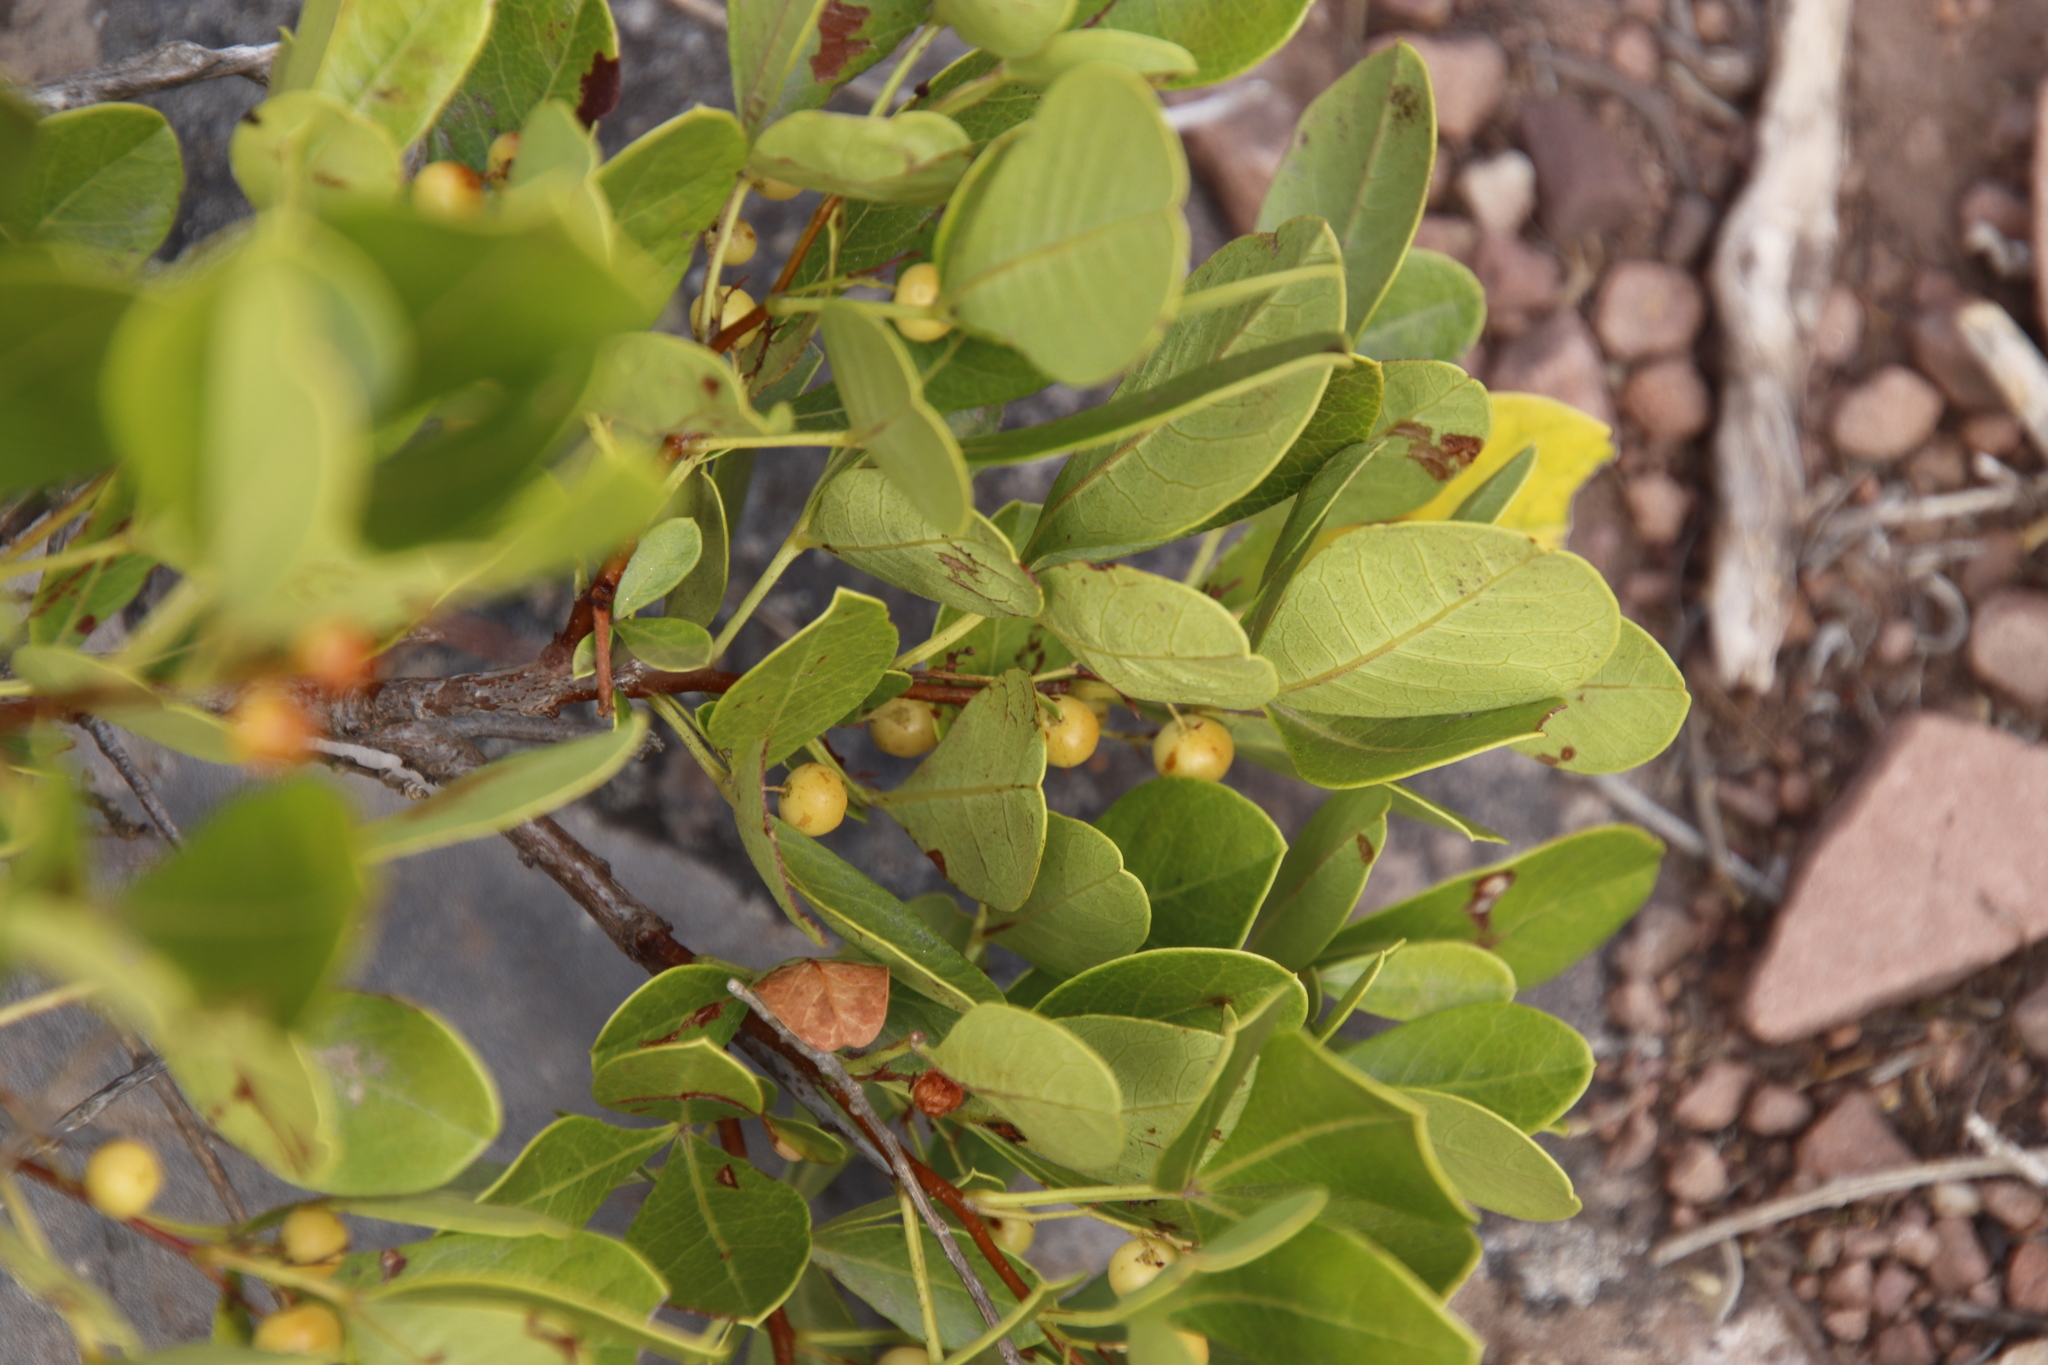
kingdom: Plantae
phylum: Tracheophyta
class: Magnoliopsida
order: Sapindales
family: Anacardiaceae
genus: Searsia
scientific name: Searsia laevigata
